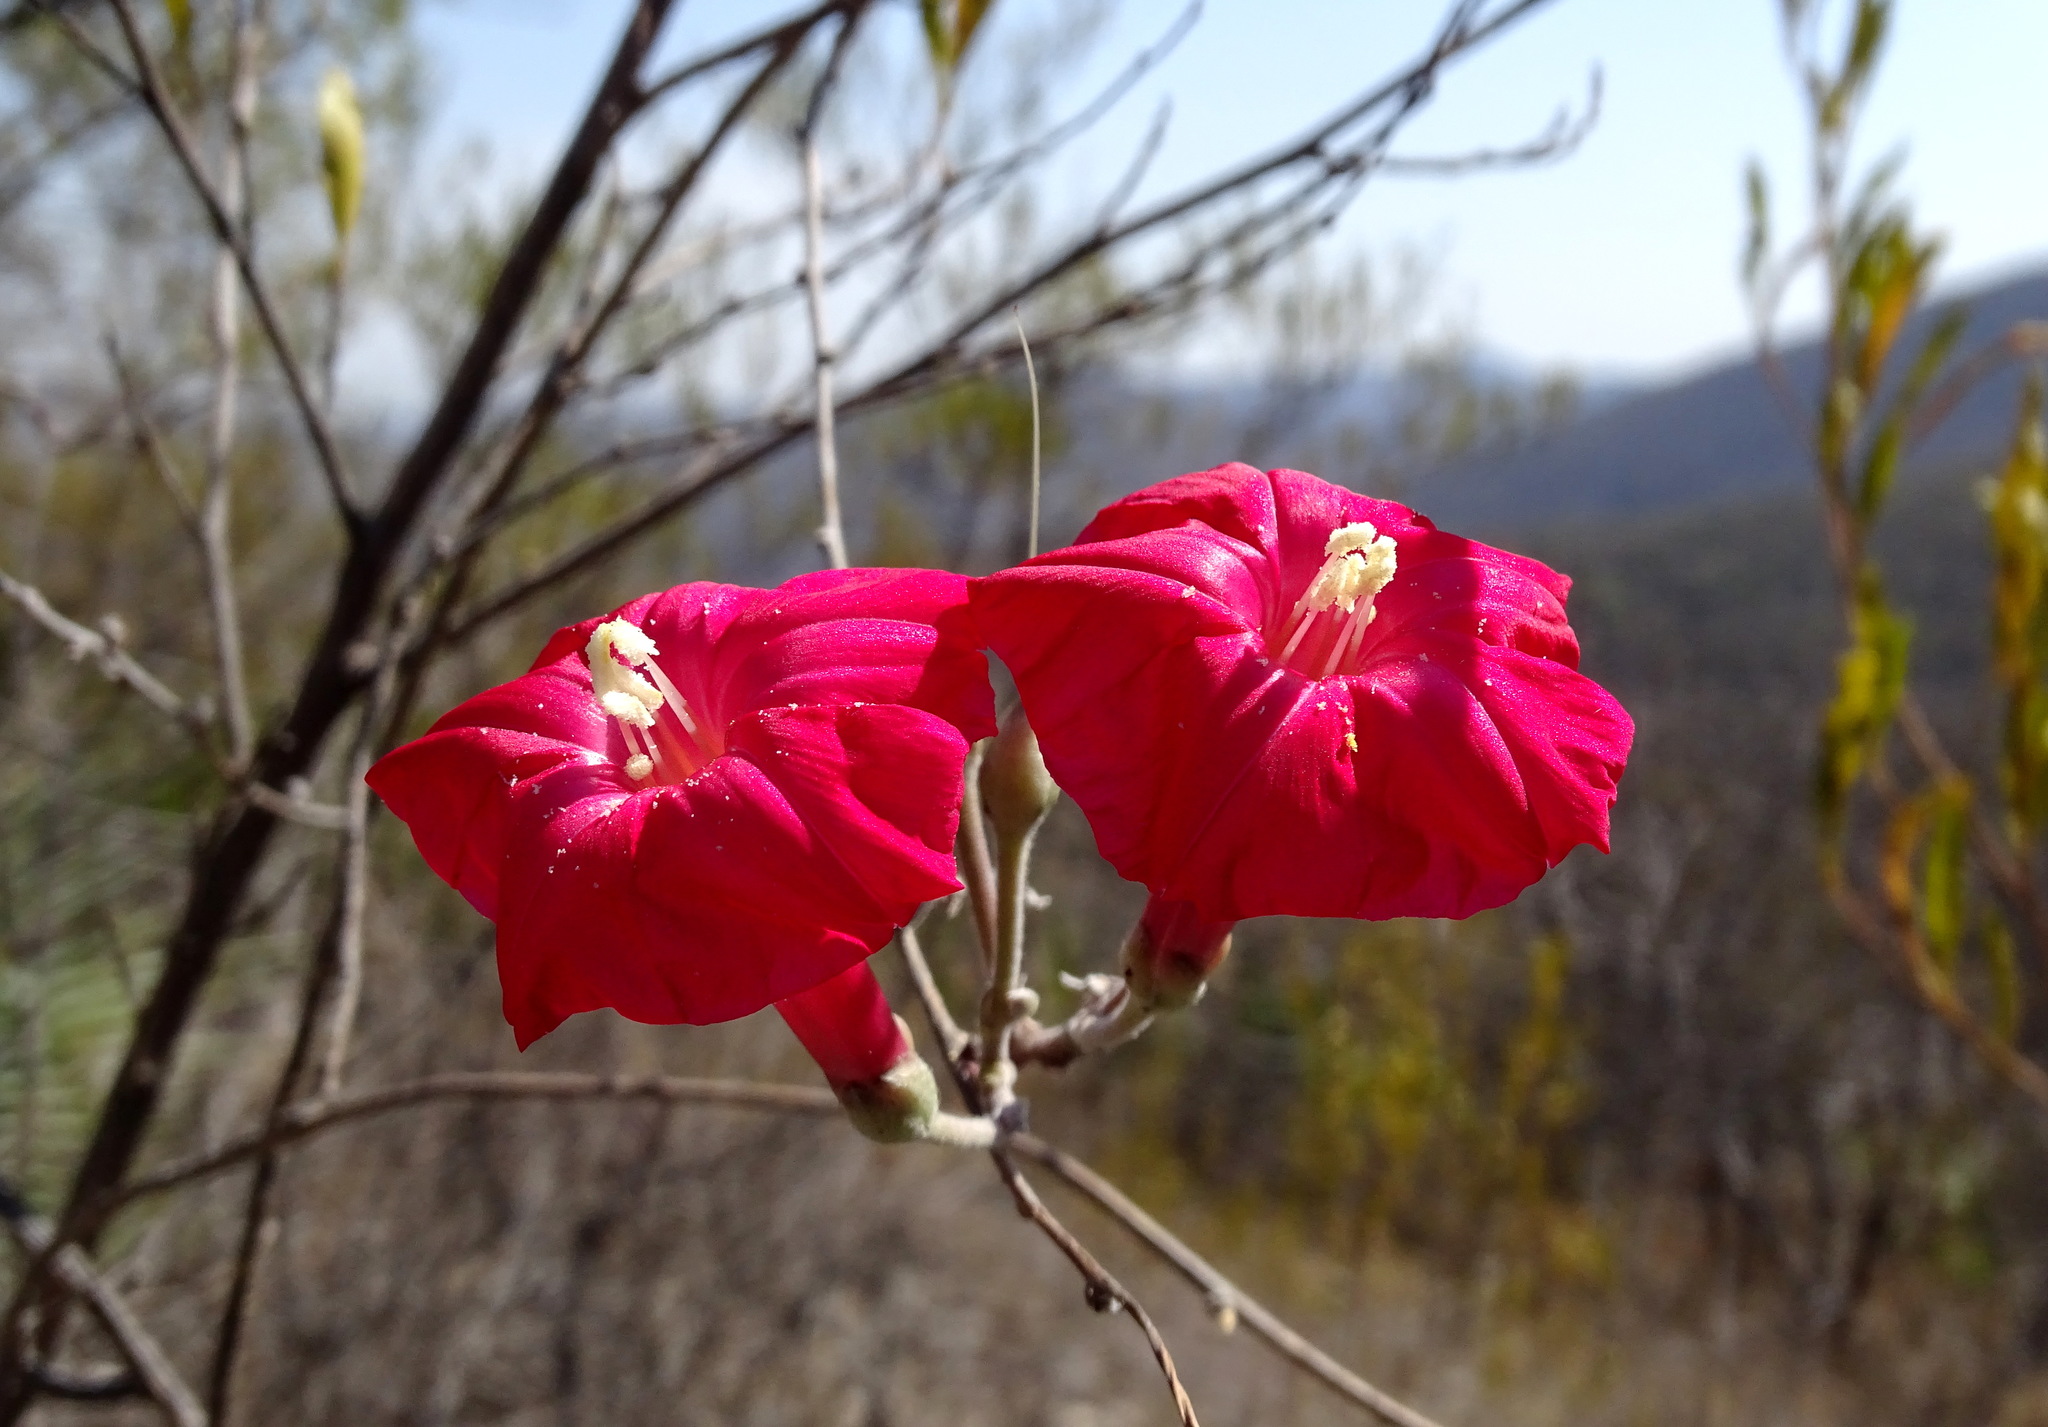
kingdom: Plantae
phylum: Tracheophyta
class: Magnoliopsida
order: Solanales
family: Convolvulaceae
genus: Ipomoea
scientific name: Ipomoea conzattii
